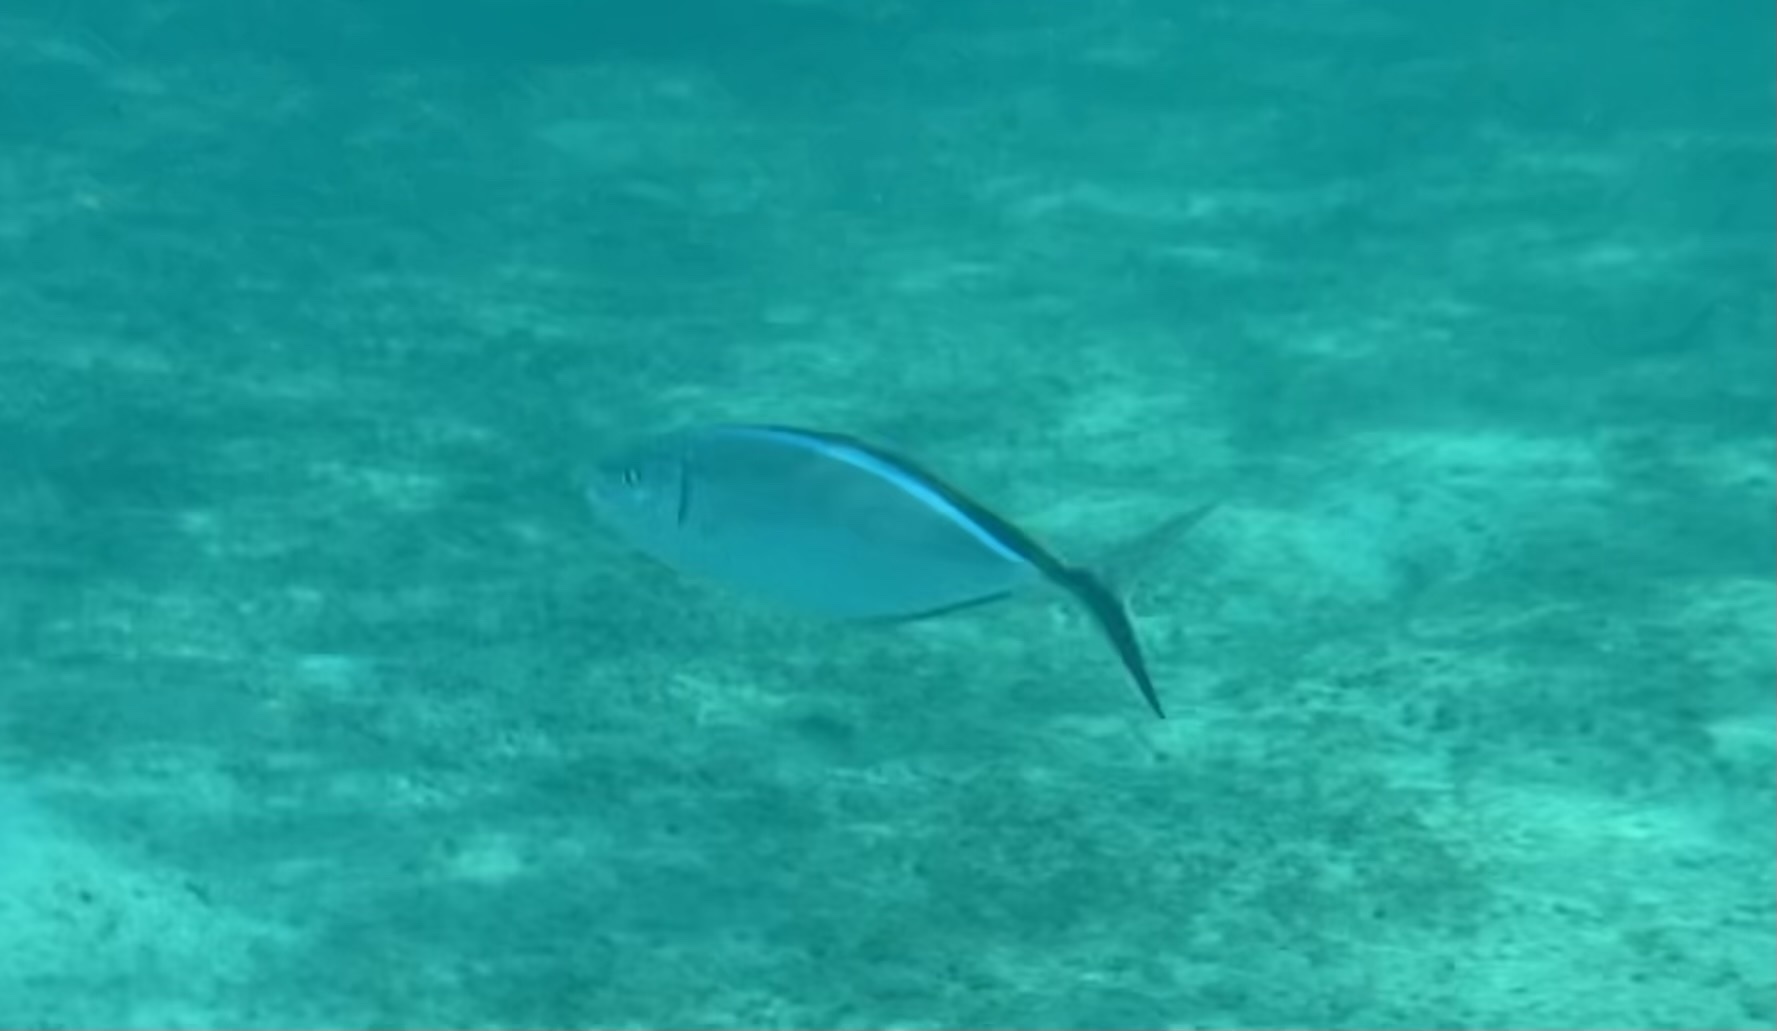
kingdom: Animalia
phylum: Chordata
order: Perciformes
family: Carangidae
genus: Caranx
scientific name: Caranx ruber
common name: Bar jack
